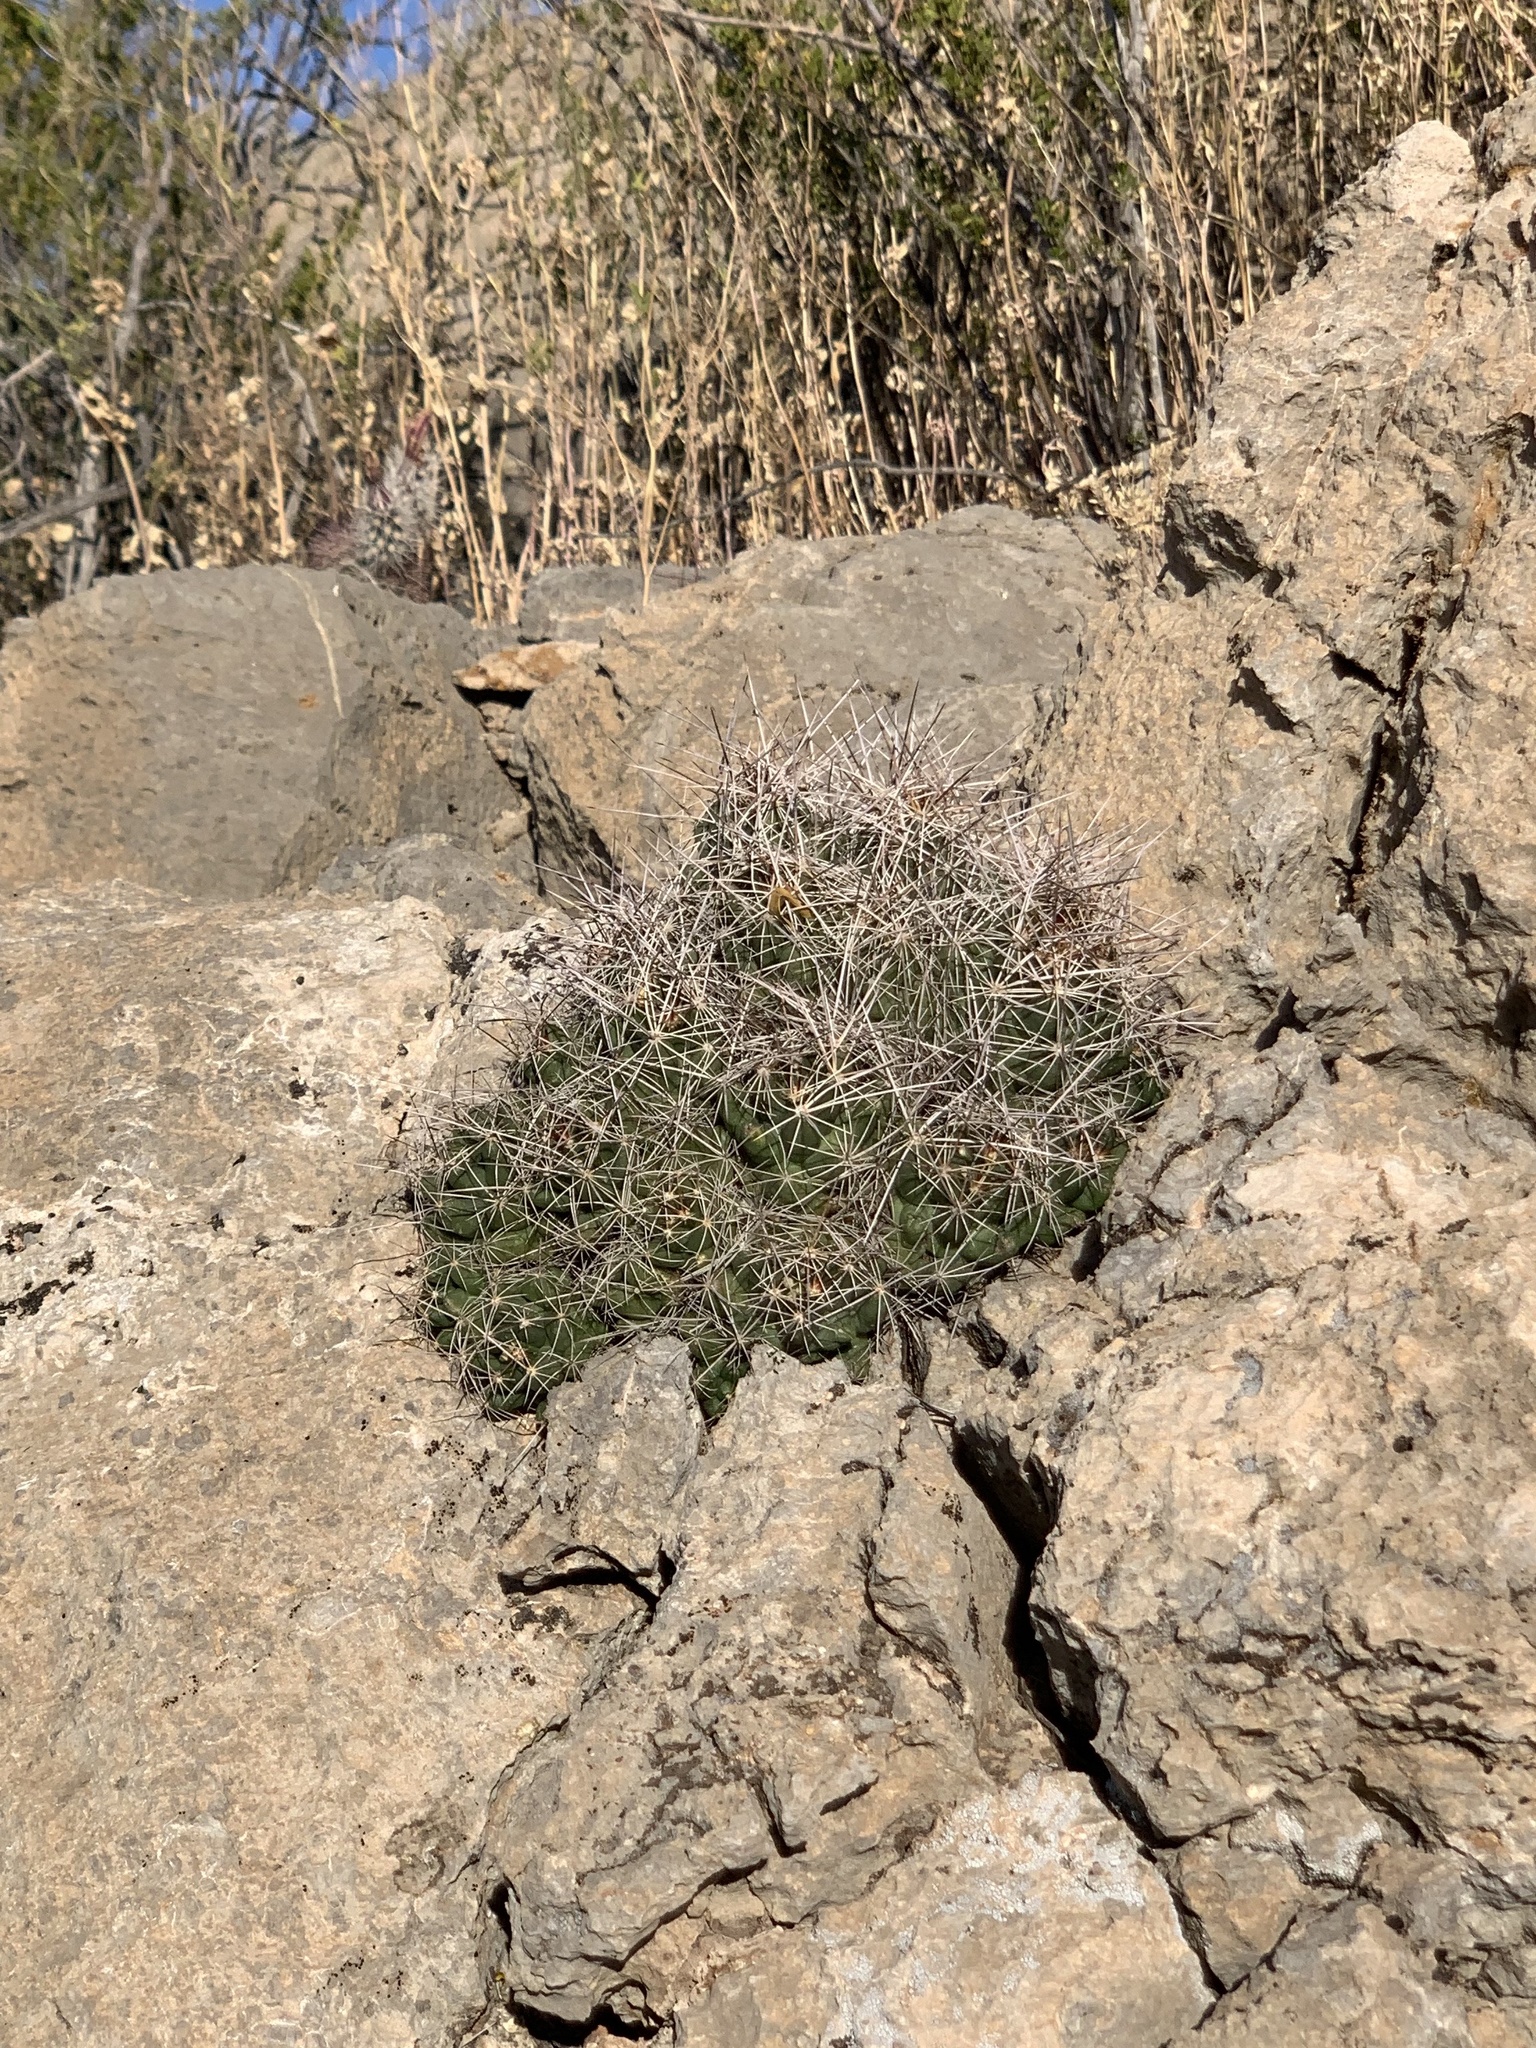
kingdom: Plantae
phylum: Tracheophyta
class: Magnoliopsida
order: Caryophyllales
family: Cactaceae
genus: Coryphantha
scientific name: Coryphantha macromeris
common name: Nipple beehive cactus
